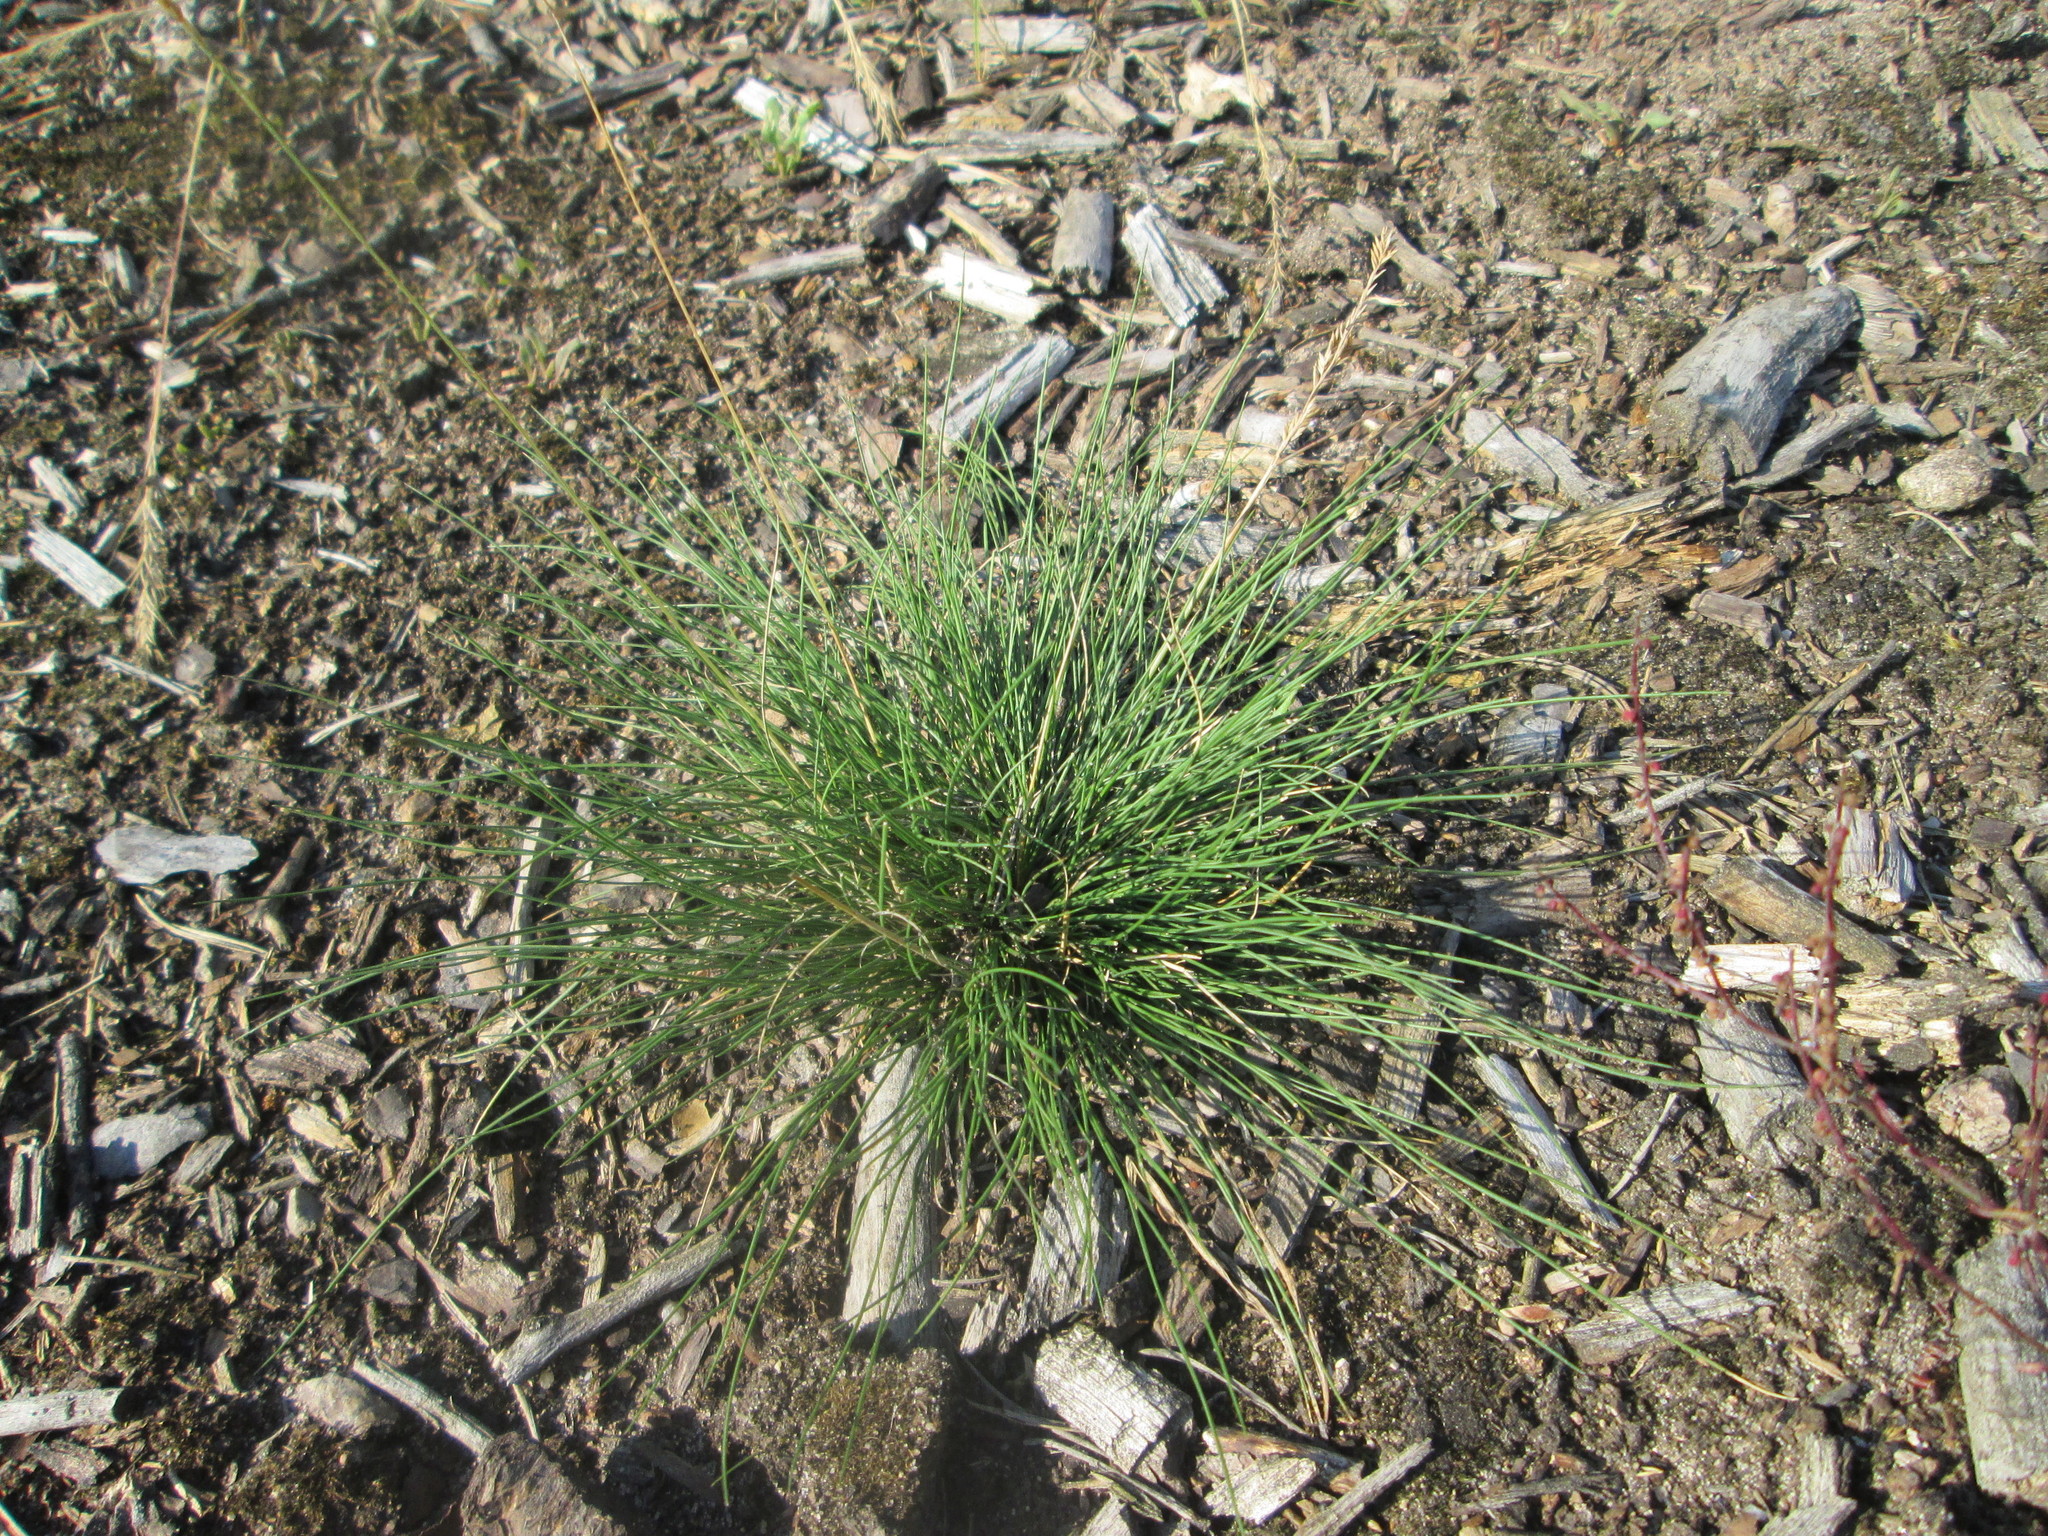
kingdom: Plantae
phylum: Tracheophyta
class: Liliopsida
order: Poales
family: Poaceae
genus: Corynephorus
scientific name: Corynephorus canescens
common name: Grey hair-grass
